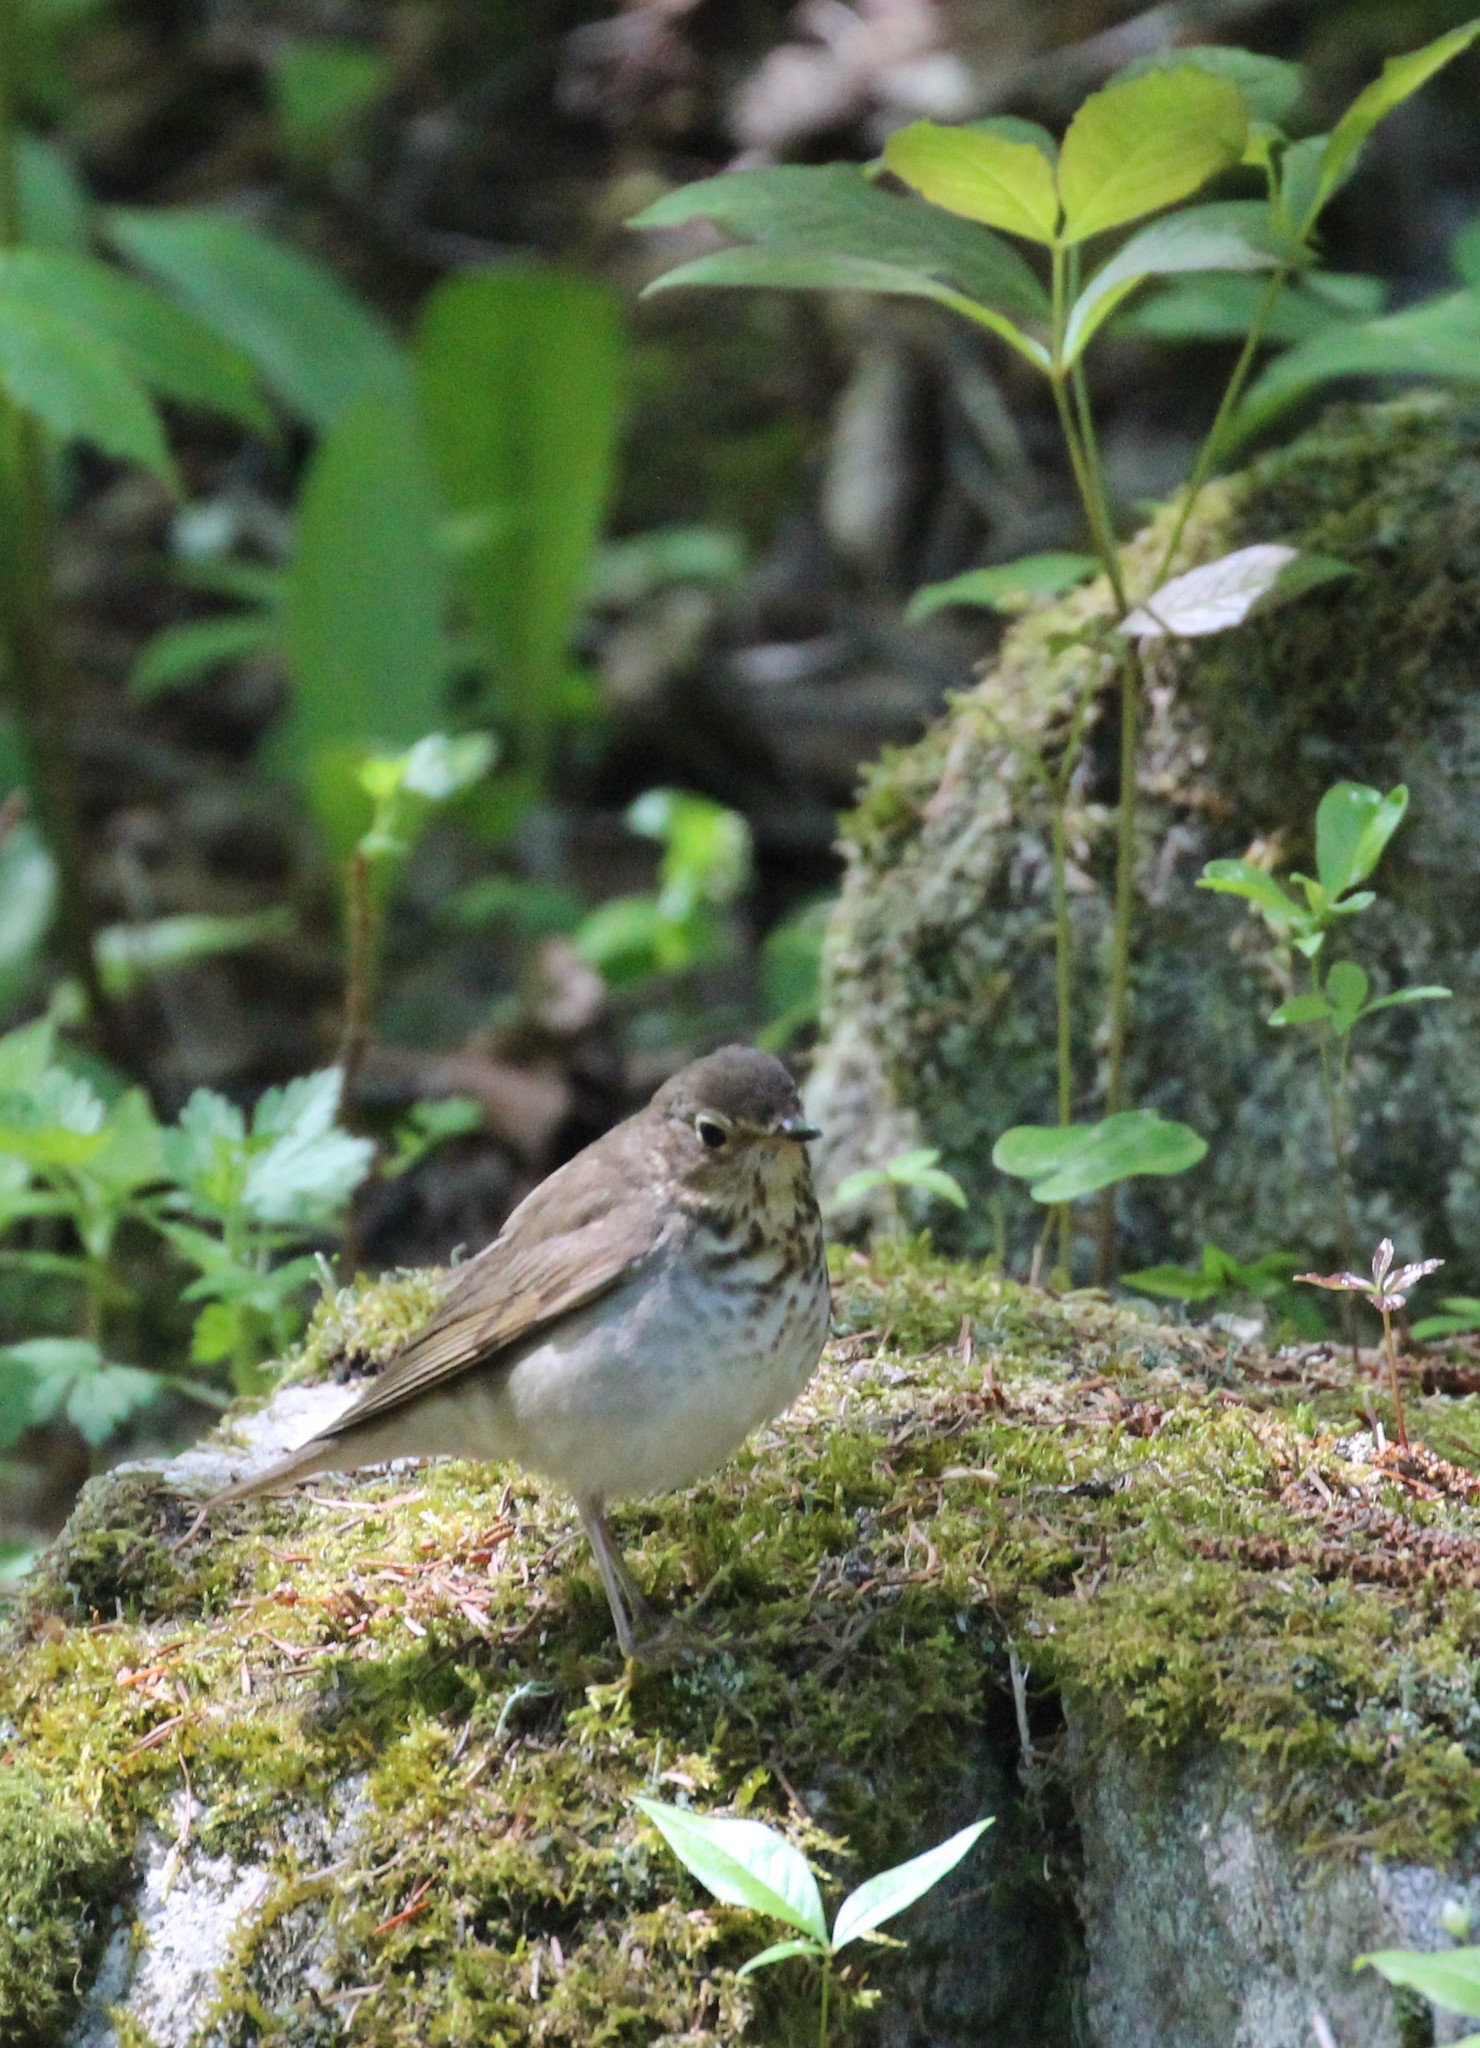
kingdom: Animalia
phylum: Chordata
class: Aves
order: Passeriformes
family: Turdidae
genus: Catharus
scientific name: Catharus ustulatus
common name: Swainson's thrush
